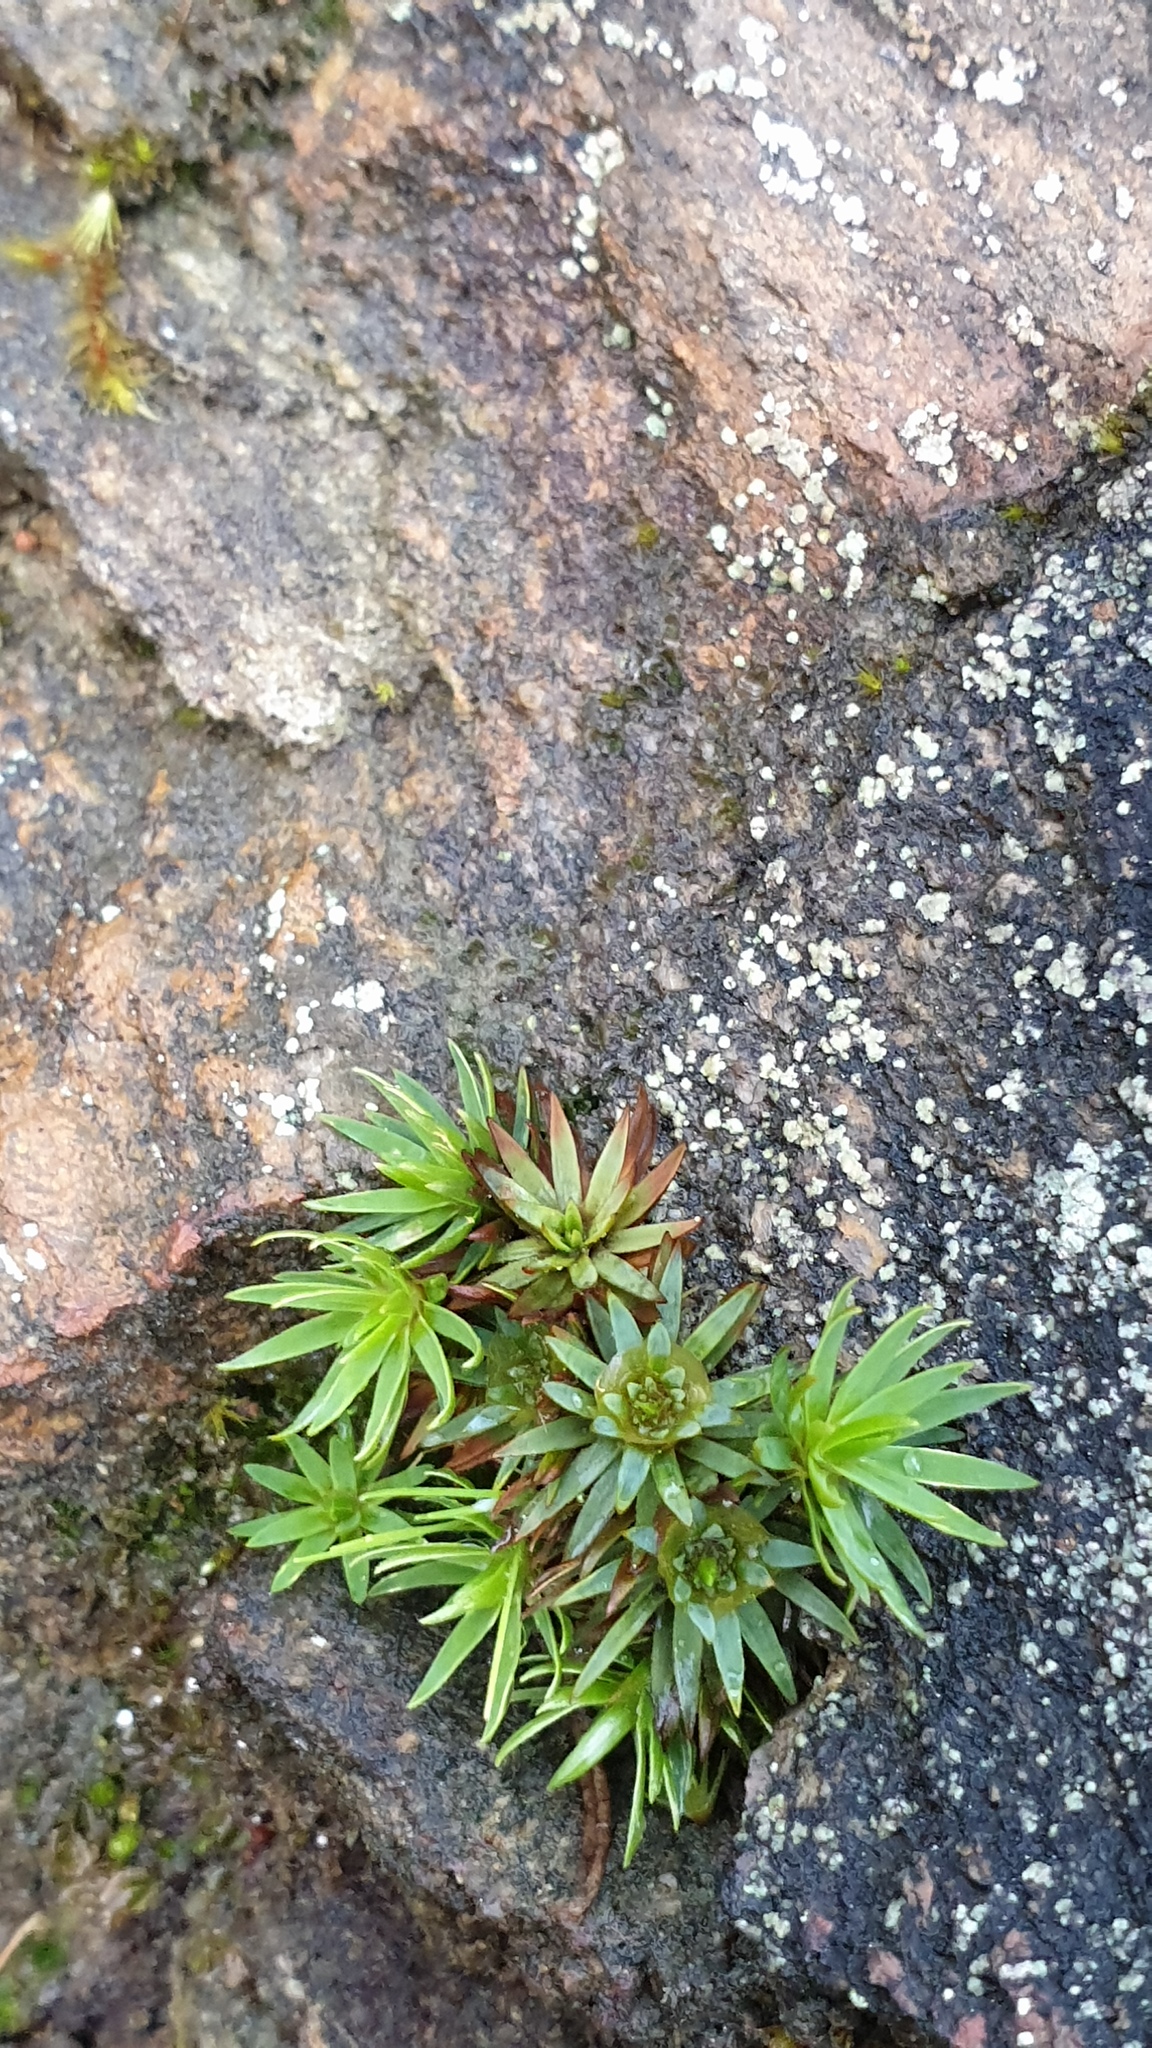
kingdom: Plantae
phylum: Bryophyta
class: Polytrichopsida
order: Polytrichales
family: Polytrichaceae
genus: Dawsonia
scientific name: Dawsonia longiseta
